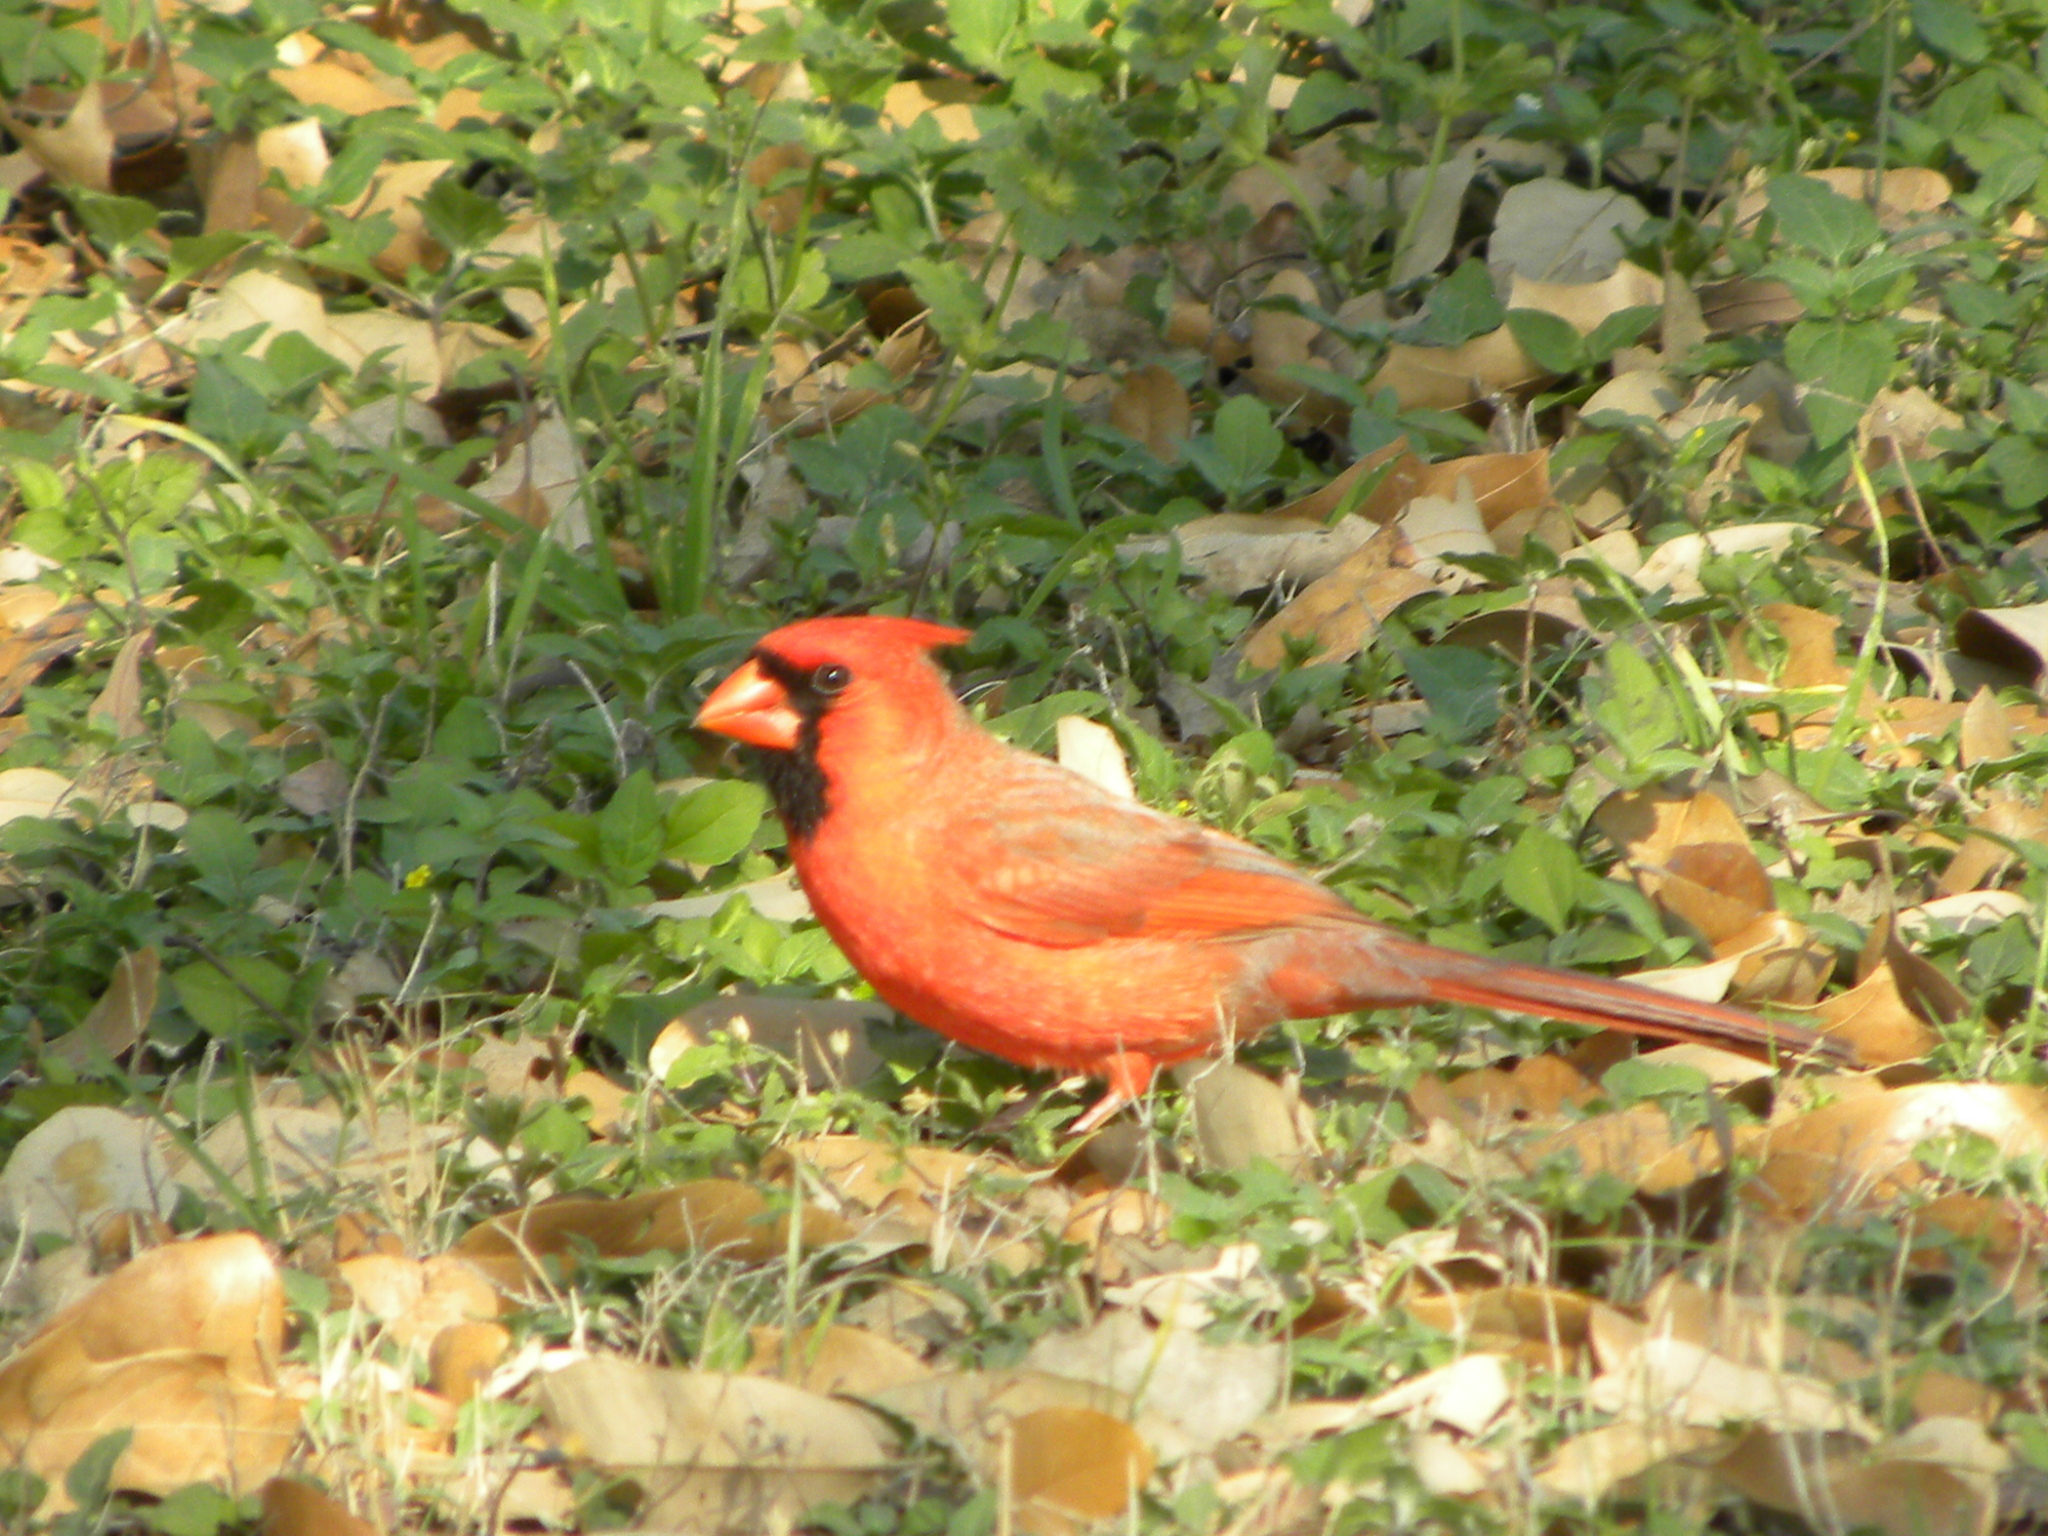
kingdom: Animalia
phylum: Chordata
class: Aves
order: Passeriformes
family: Cardinalidae
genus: Cardinalis
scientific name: Cardinalis cardinalis
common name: Northern cardinal
